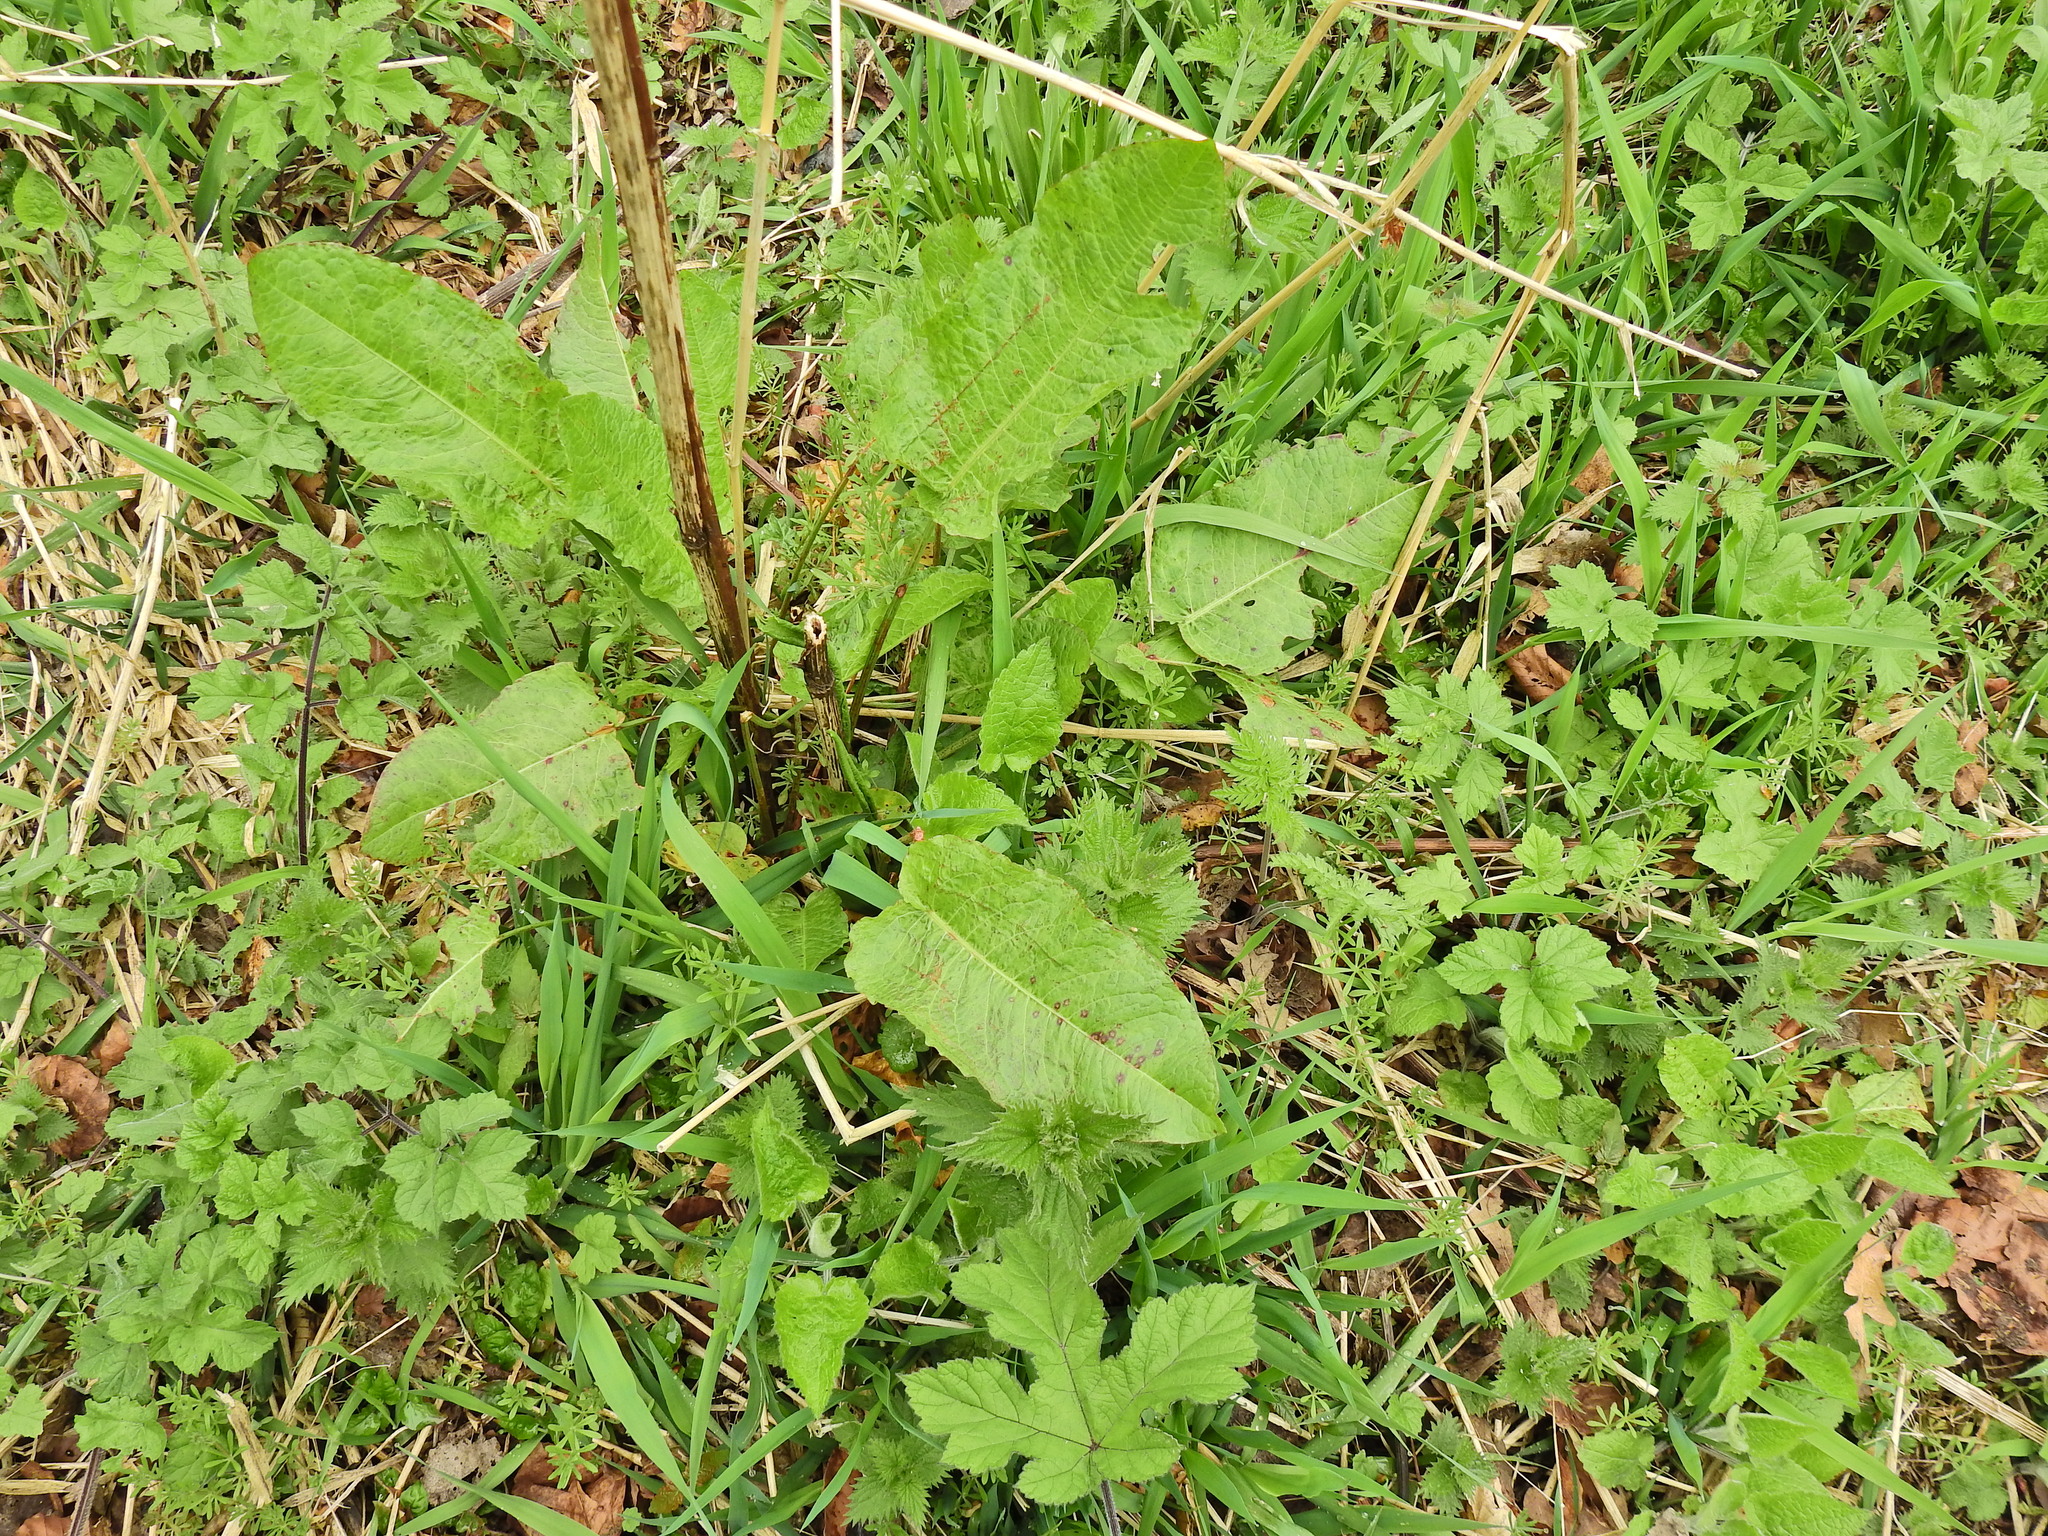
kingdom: Plantae
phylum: Tracheophyta
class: Magnoliopsida
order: Caryophyllales
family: Polygonaceae
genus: Rumex
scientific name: Rumex obtusifolius
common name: Bitter dock
